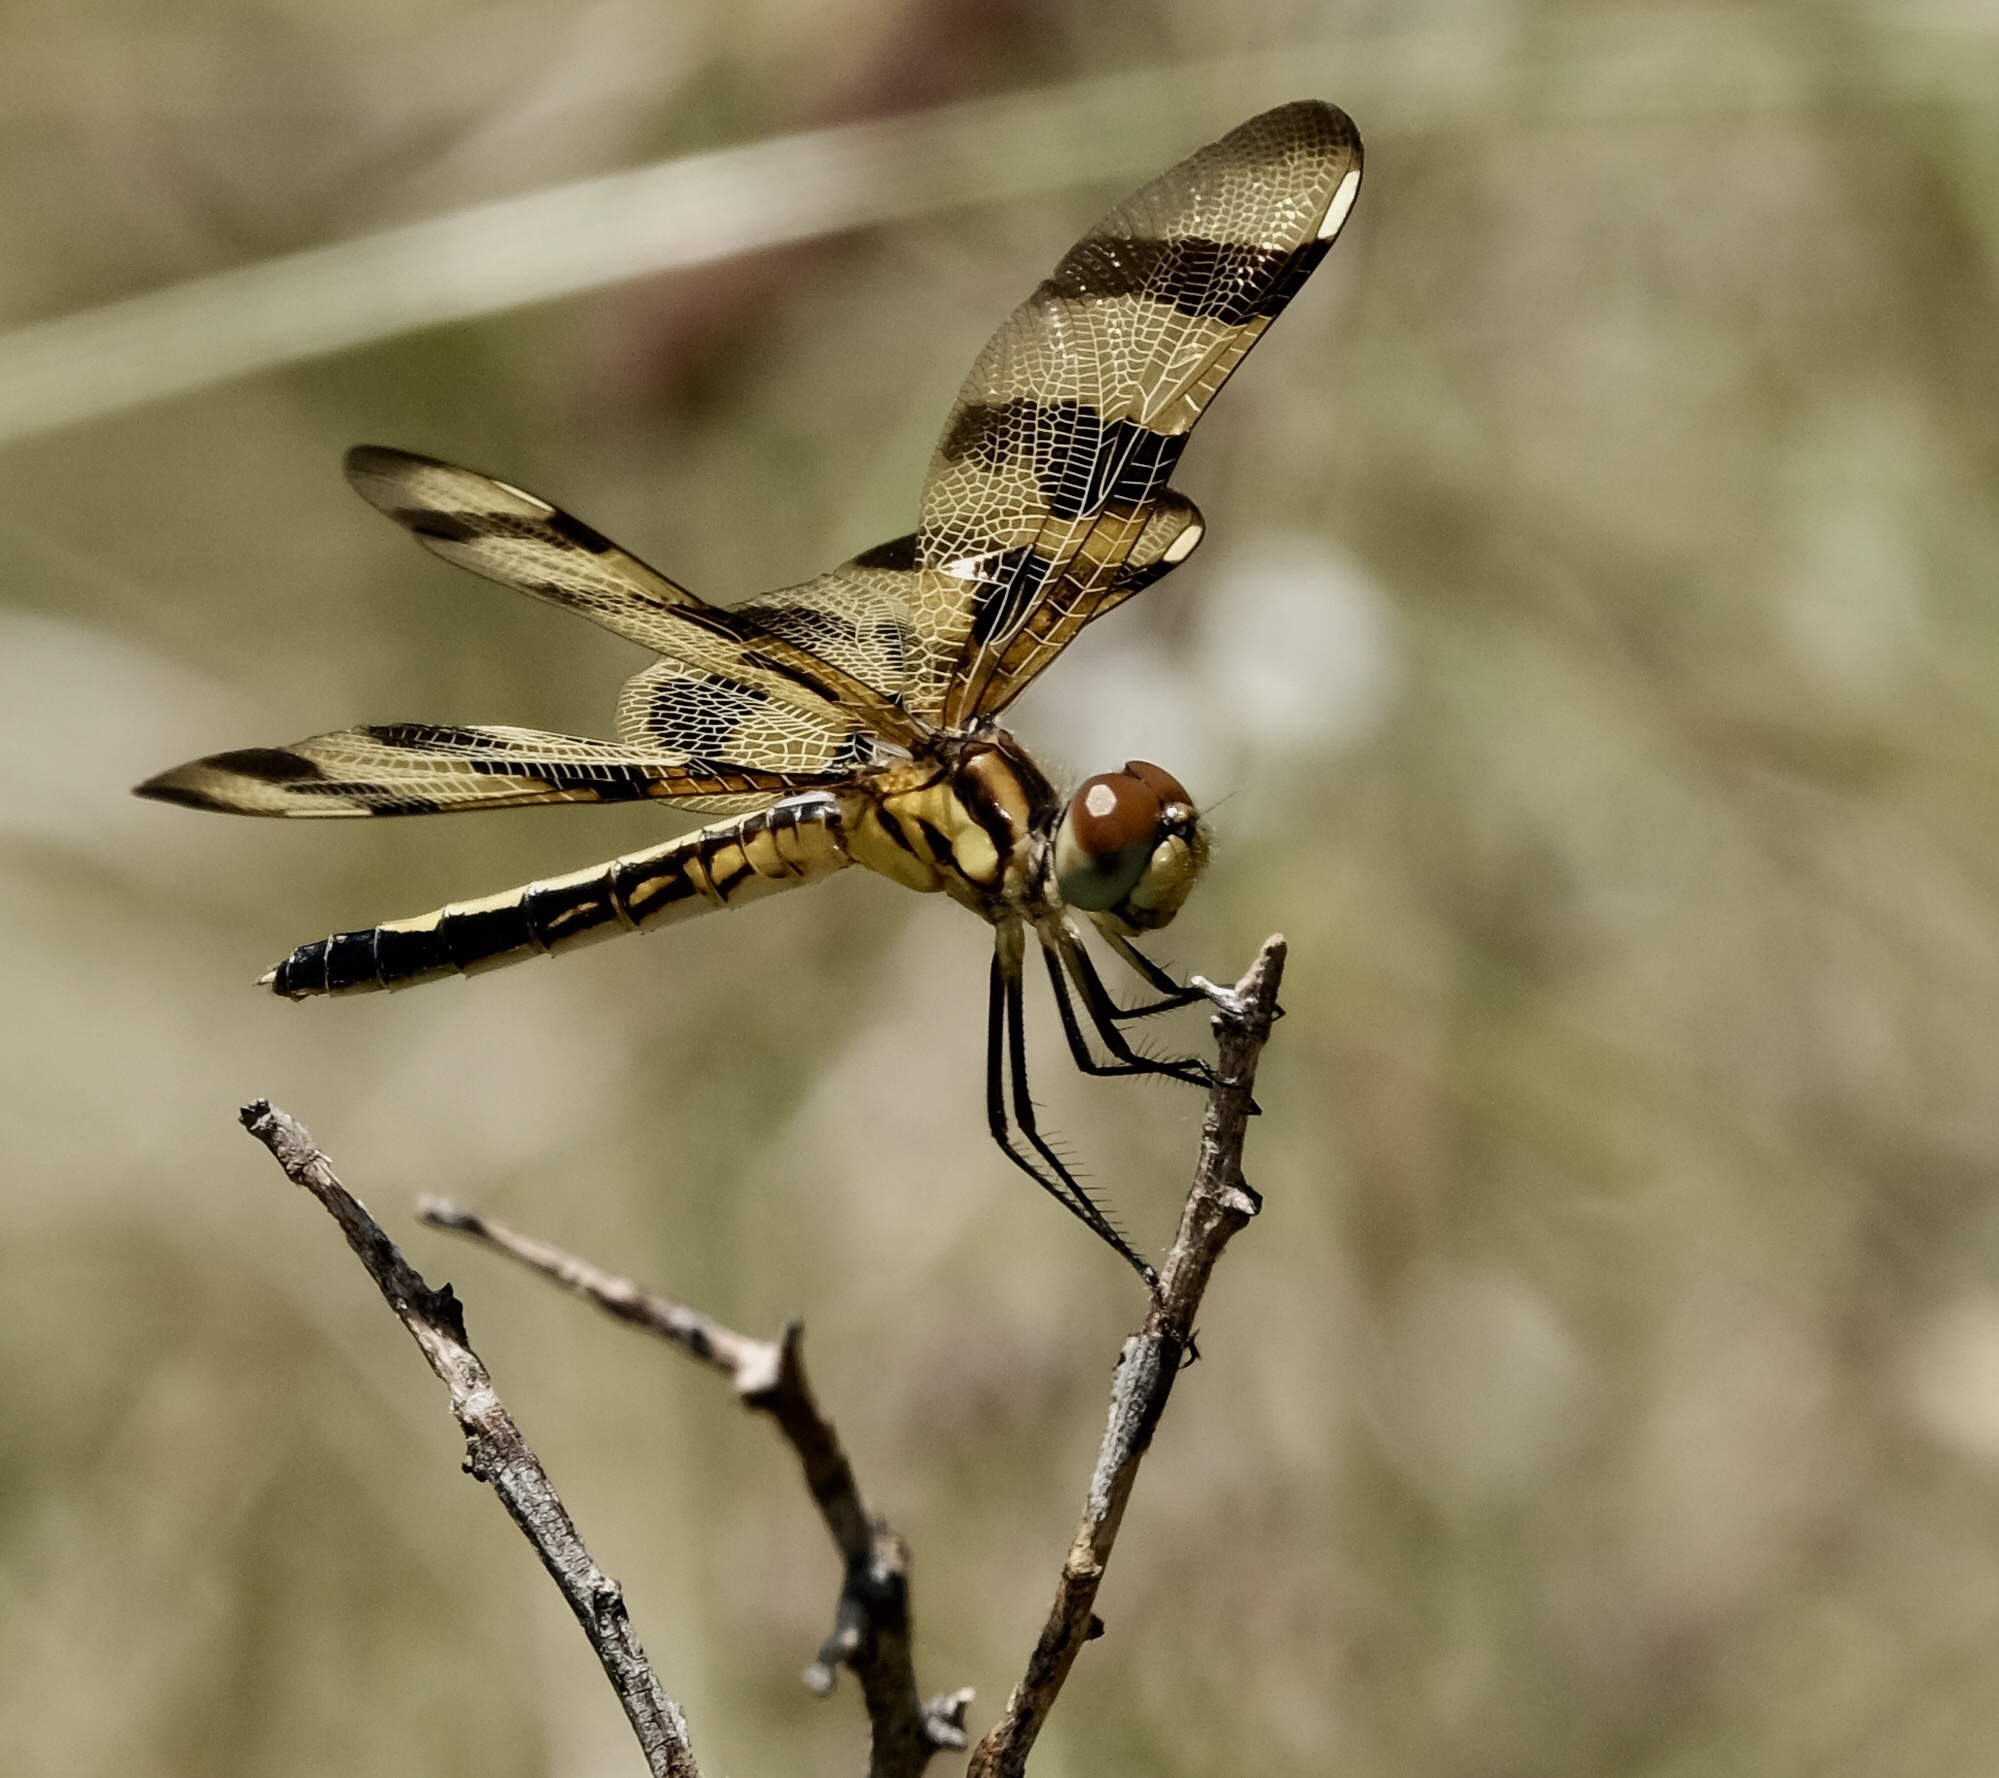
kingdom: Animalia
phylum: Arthropoda
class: Insecta
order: Odonata
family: Libellulidae
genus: Celithemis
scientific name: Celithemis eponina
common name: Halloween pennant
